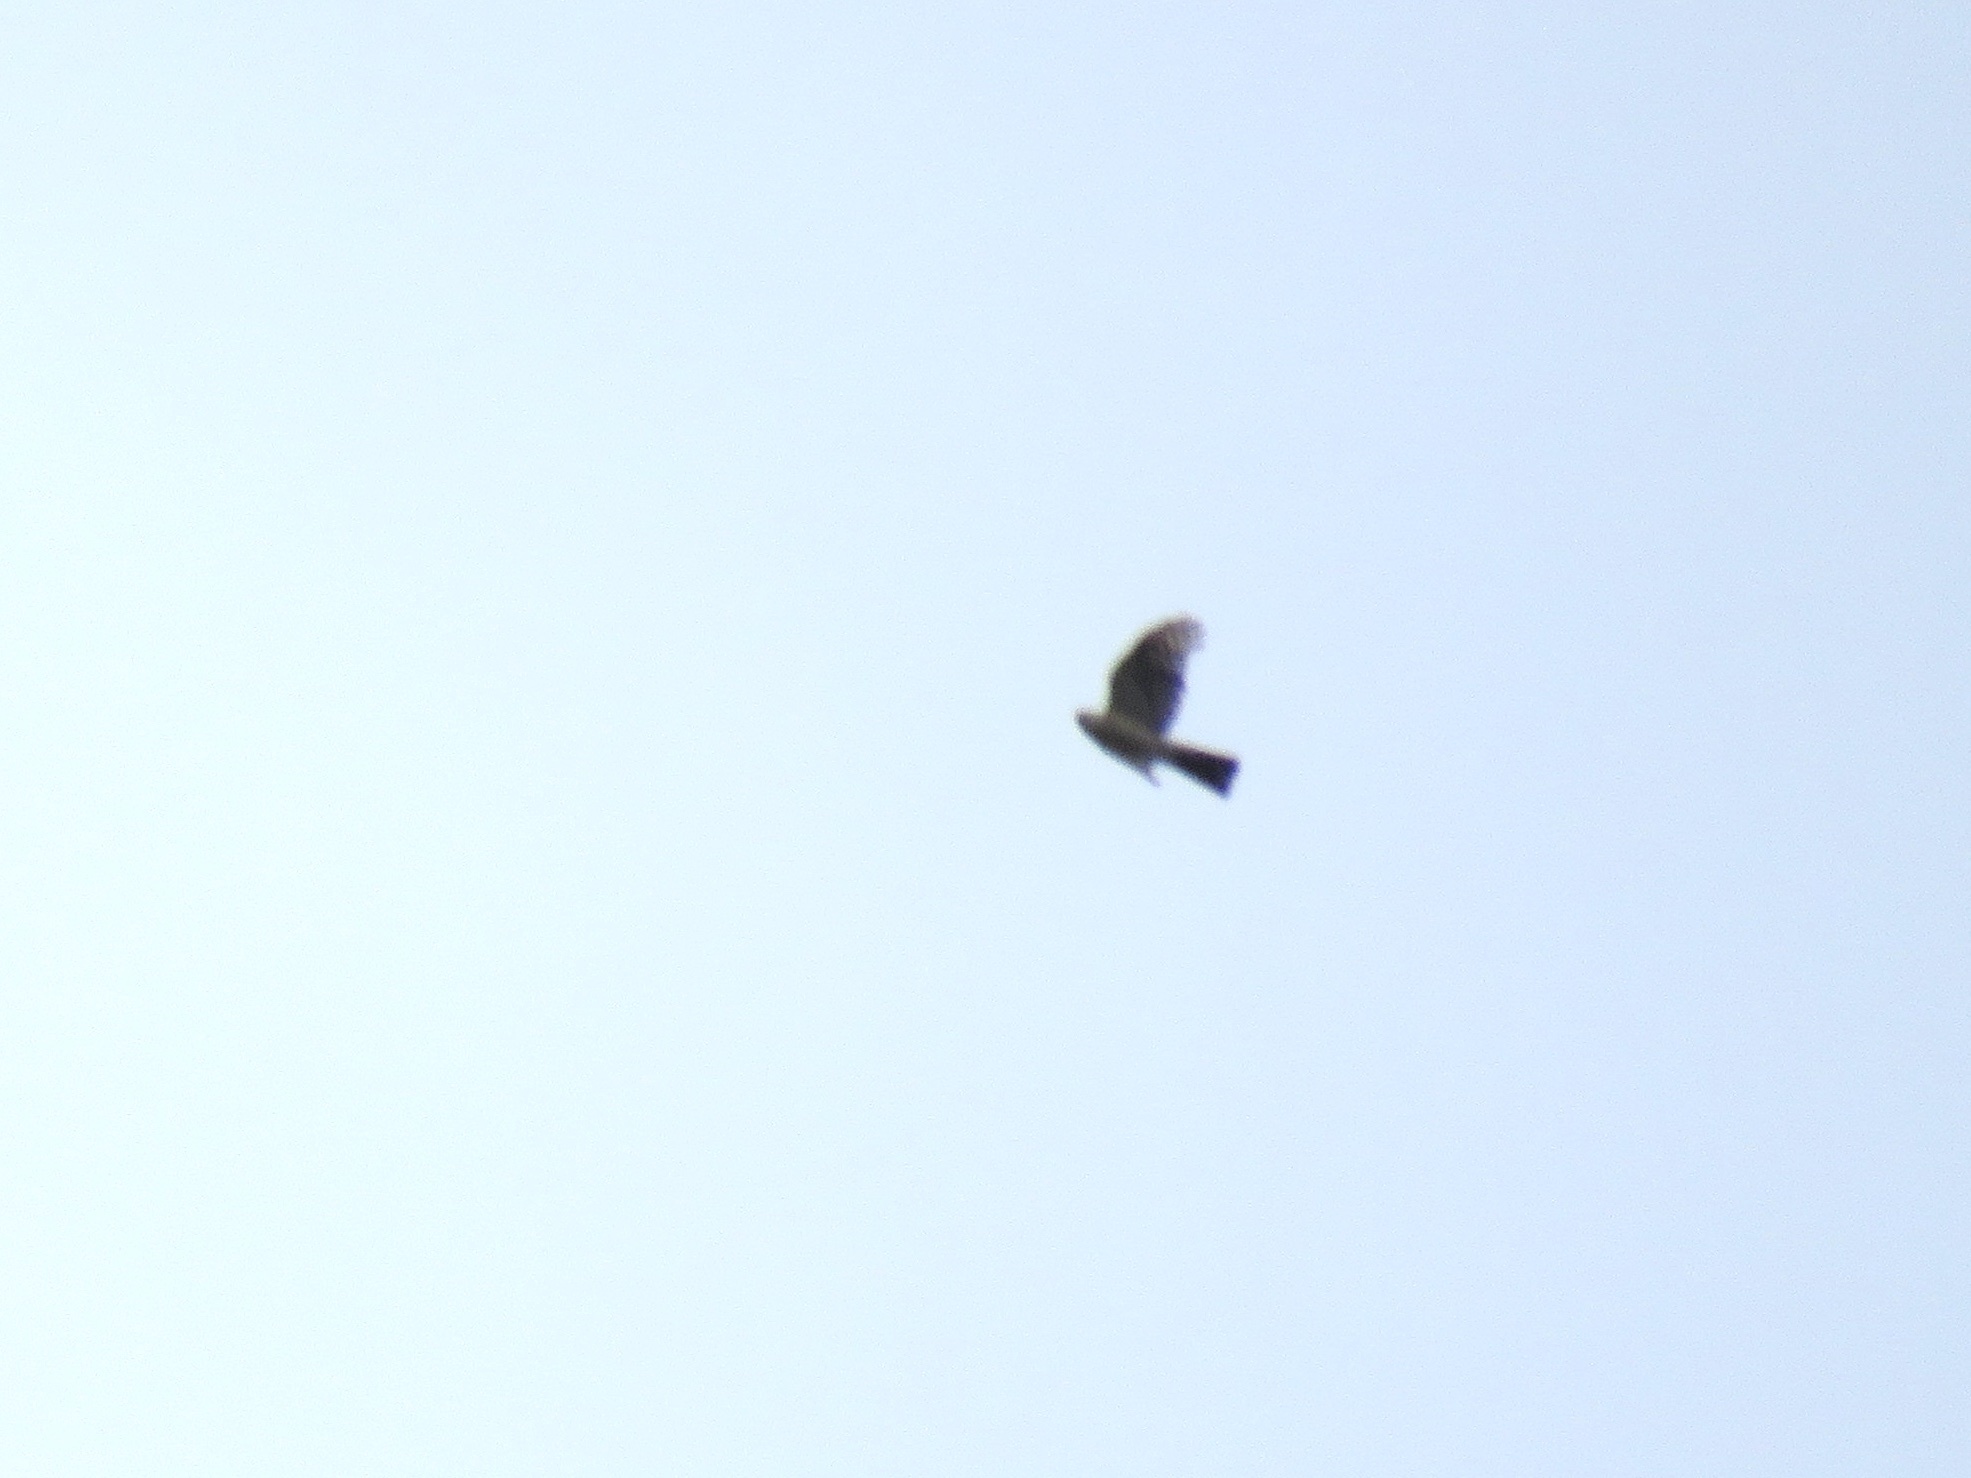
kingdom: Animalia
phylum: Chordata
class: Aves
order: Accipitriformes
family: Accipitridae
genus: Accipiter
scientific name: Accipiter striatus
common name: Sharp-shinned hawk
